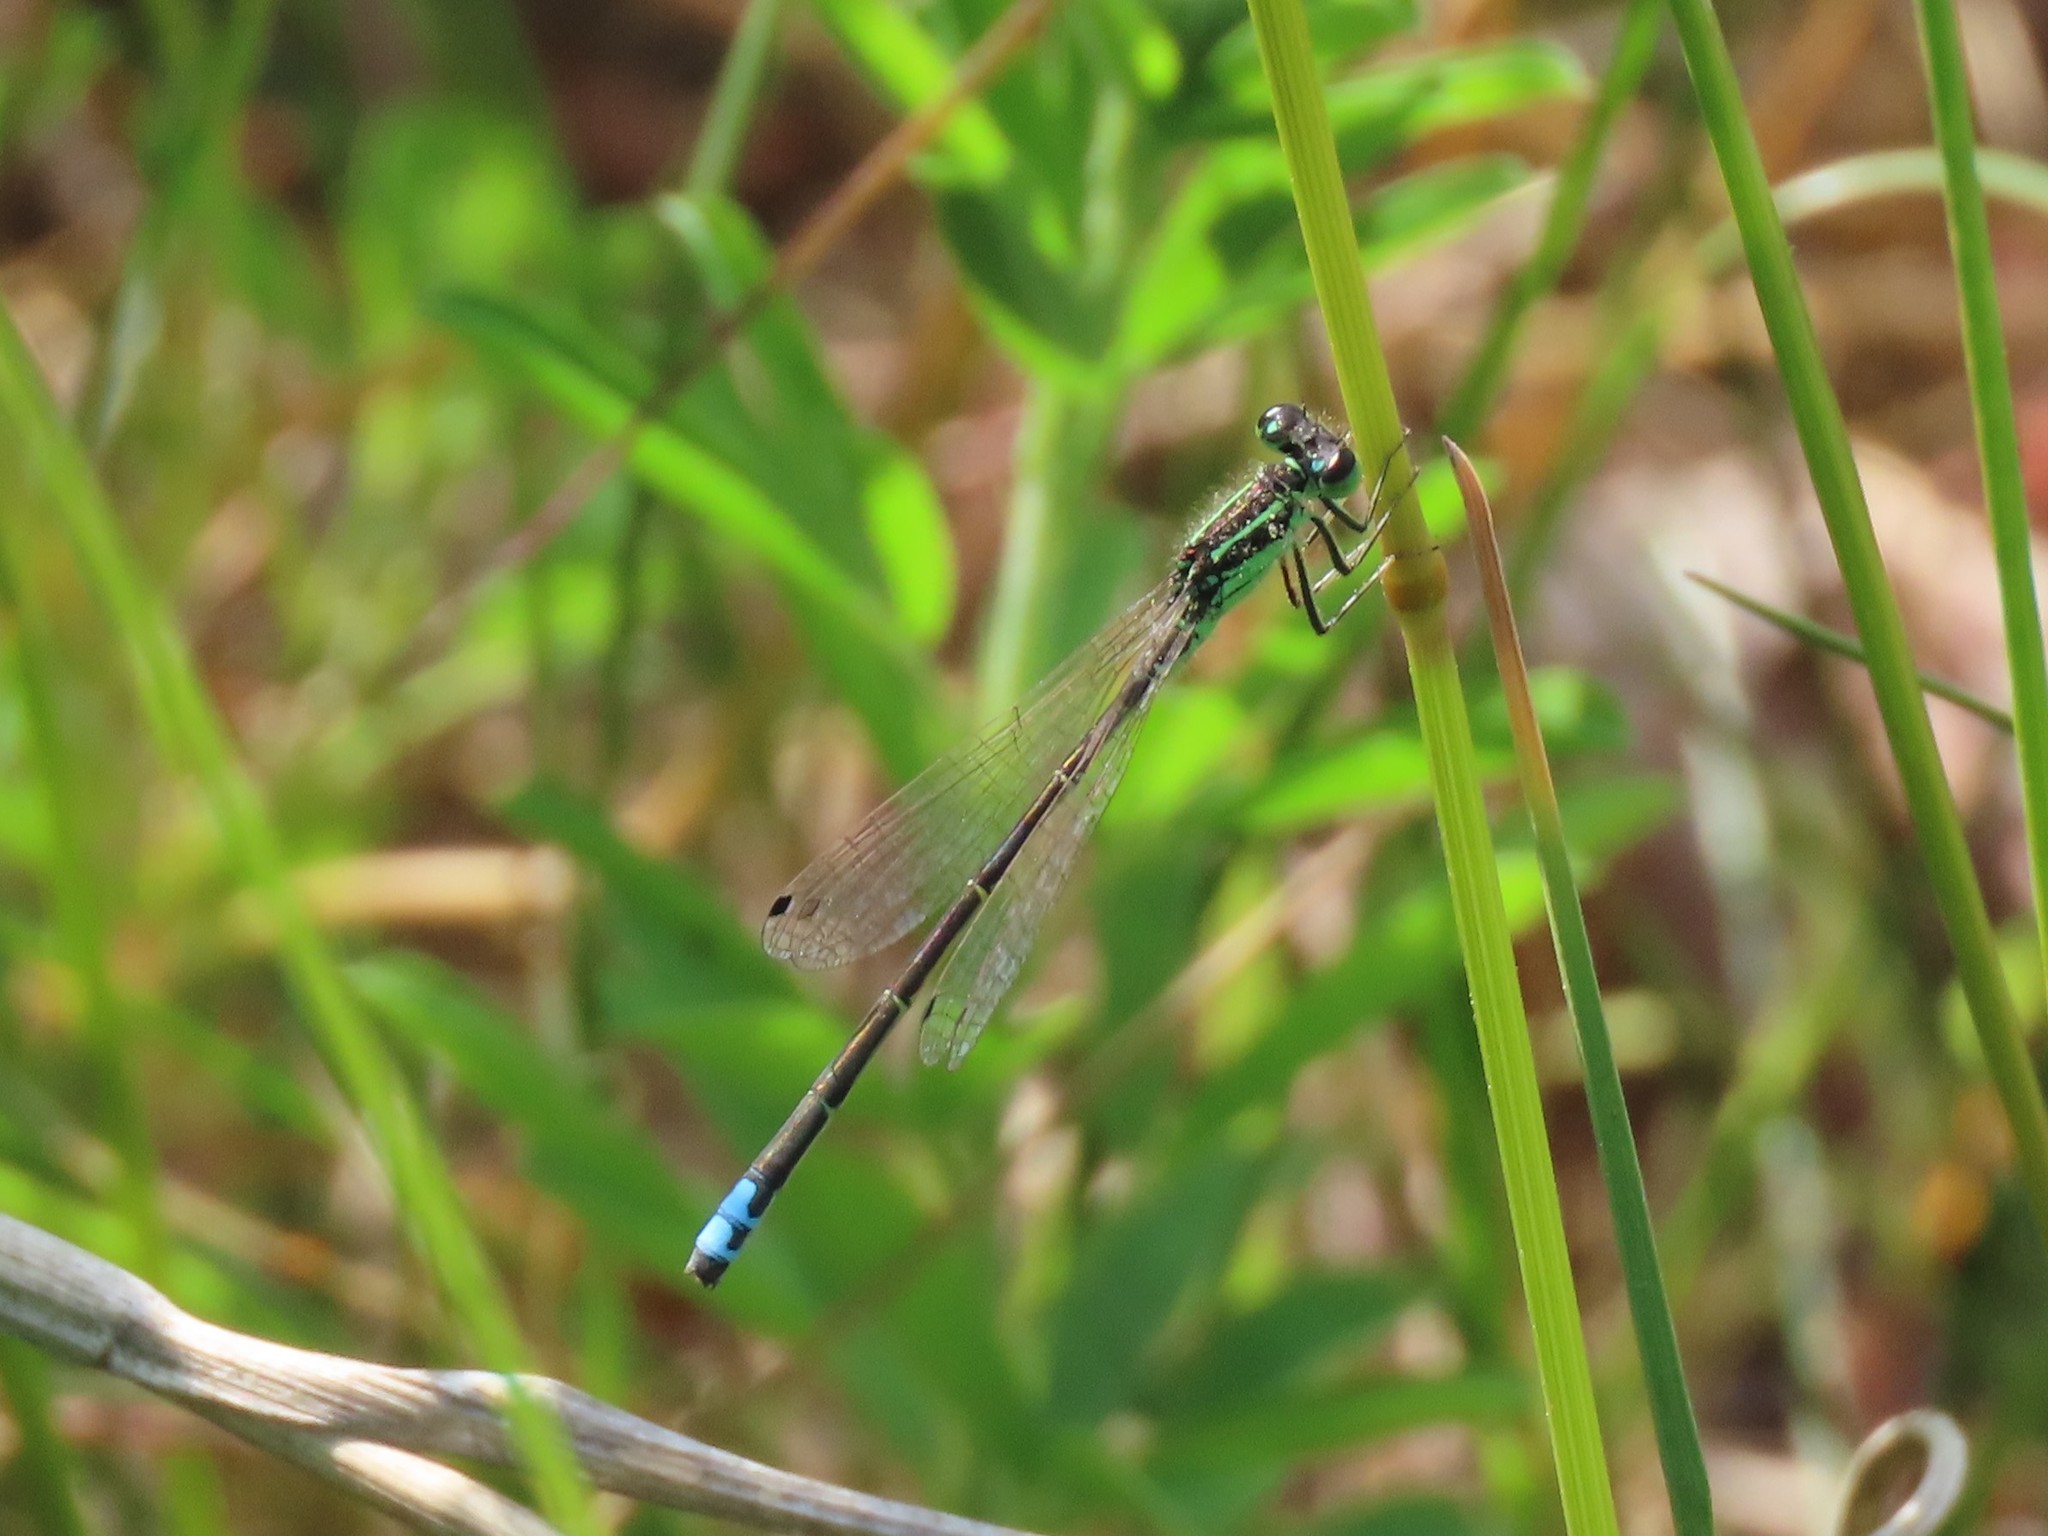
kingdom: Animalia
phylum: Arthropoda
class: Insecta
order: Odonata
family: Coenagrionidae
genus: Ischnura
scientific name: Ischnura verticalis
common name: Eastern forktail
